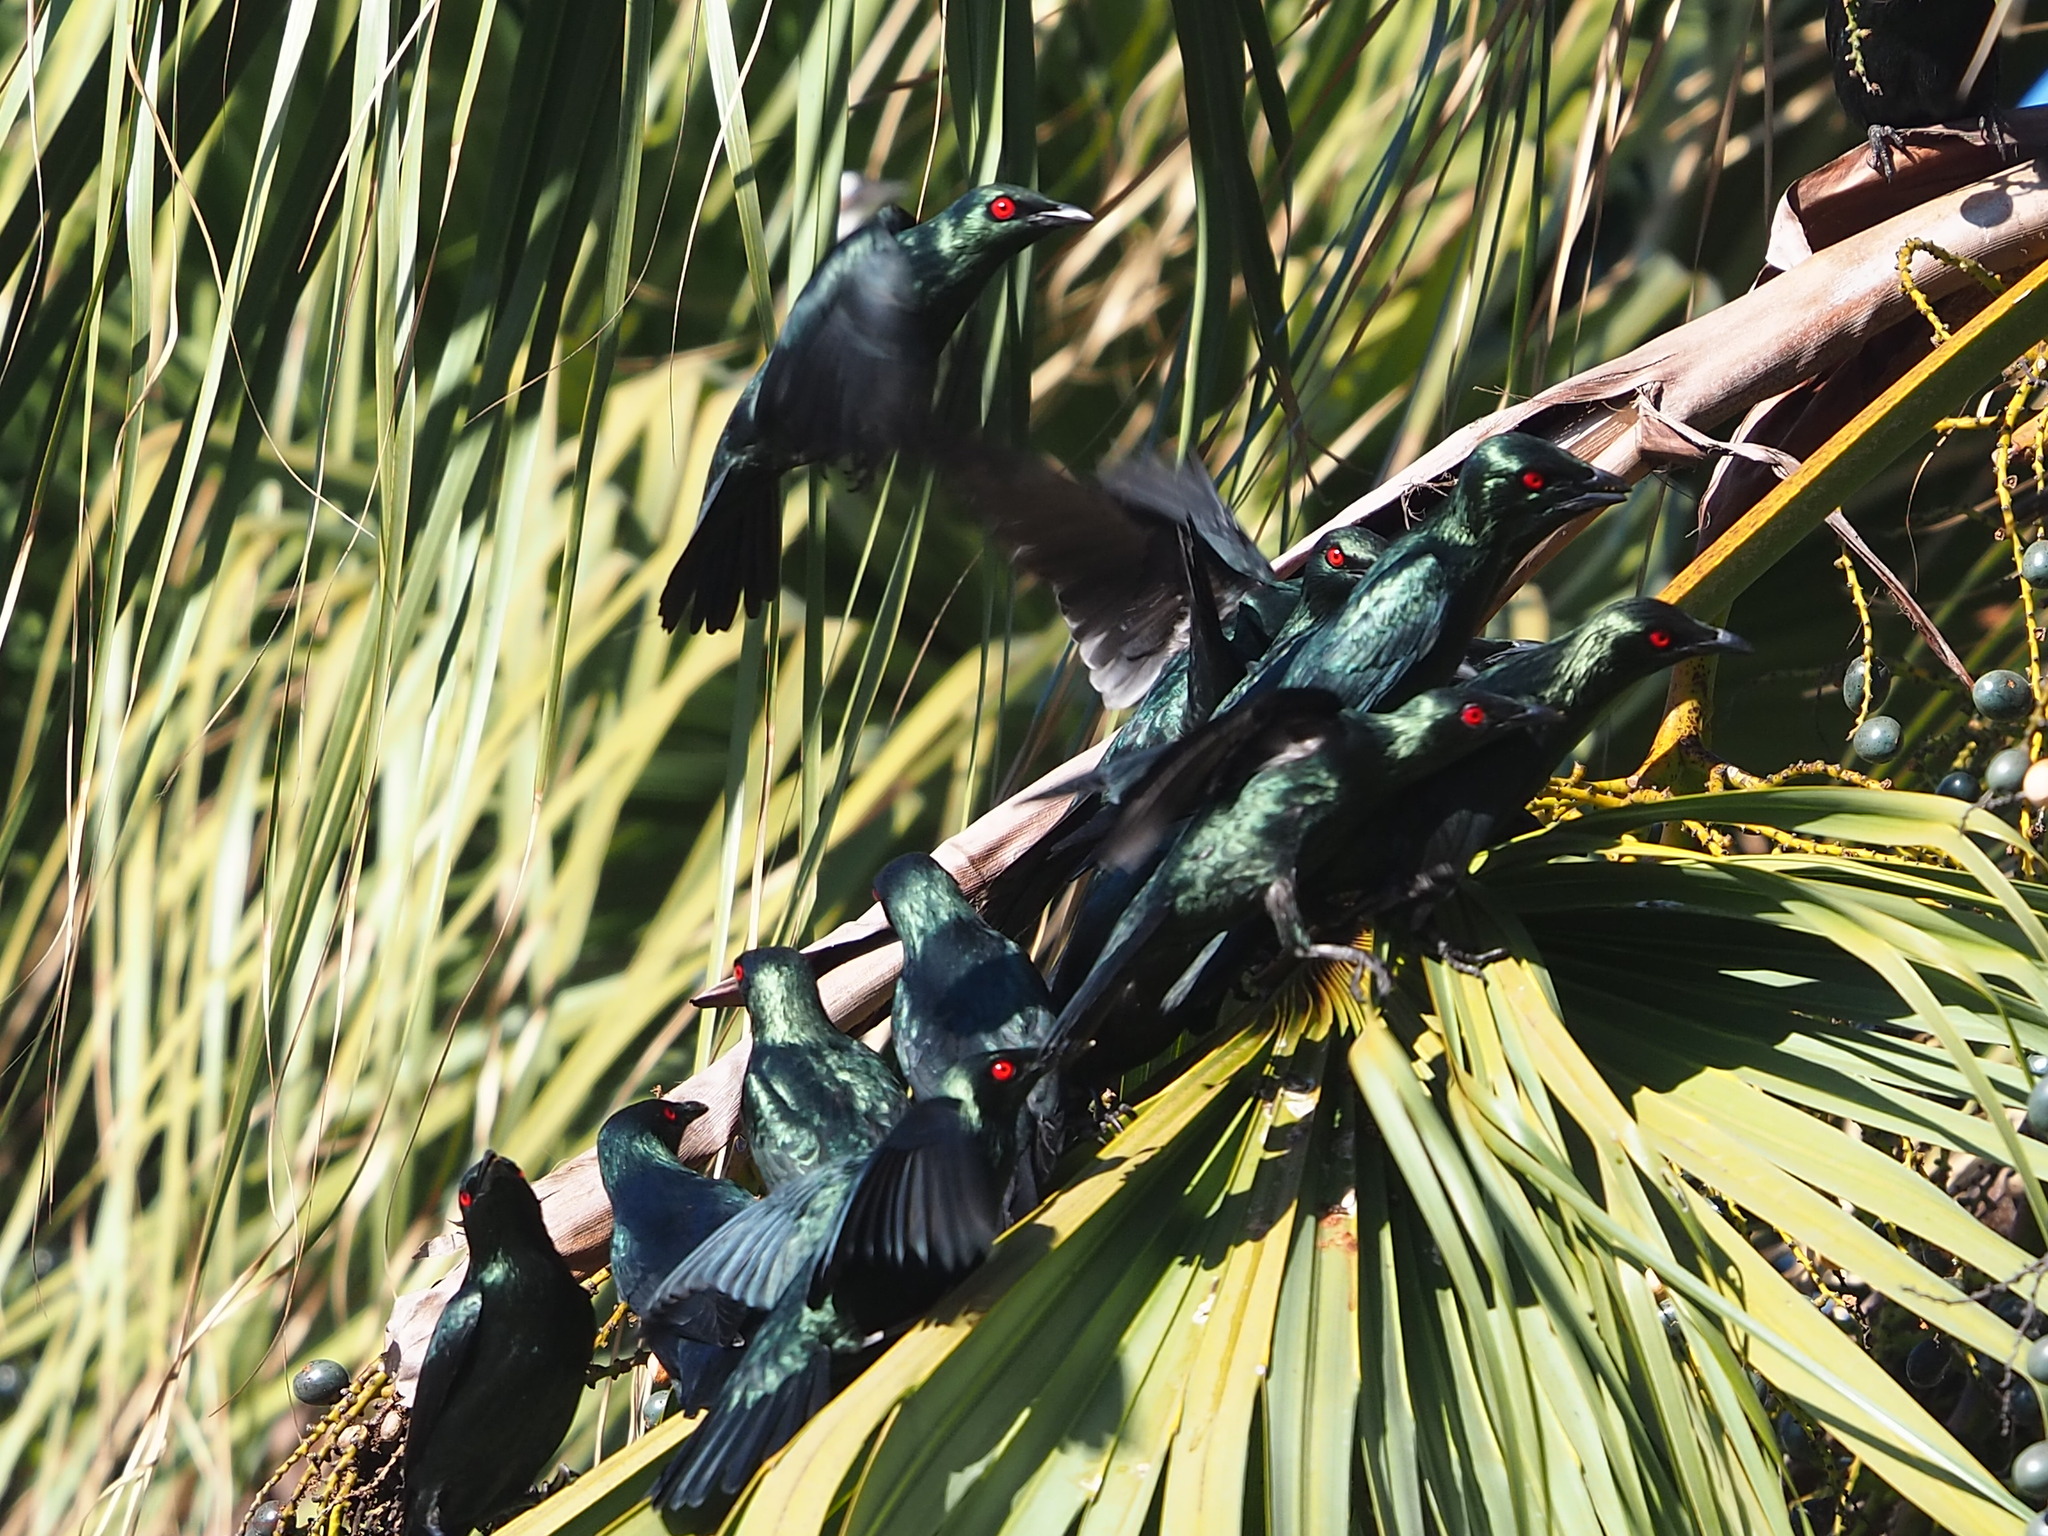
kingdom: Animalia
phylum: Chordata
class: Aves
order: Passeriformes
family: Sturnidae
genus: Aplonis
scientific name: Aplonis panayensis
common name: Asian glossy starling
